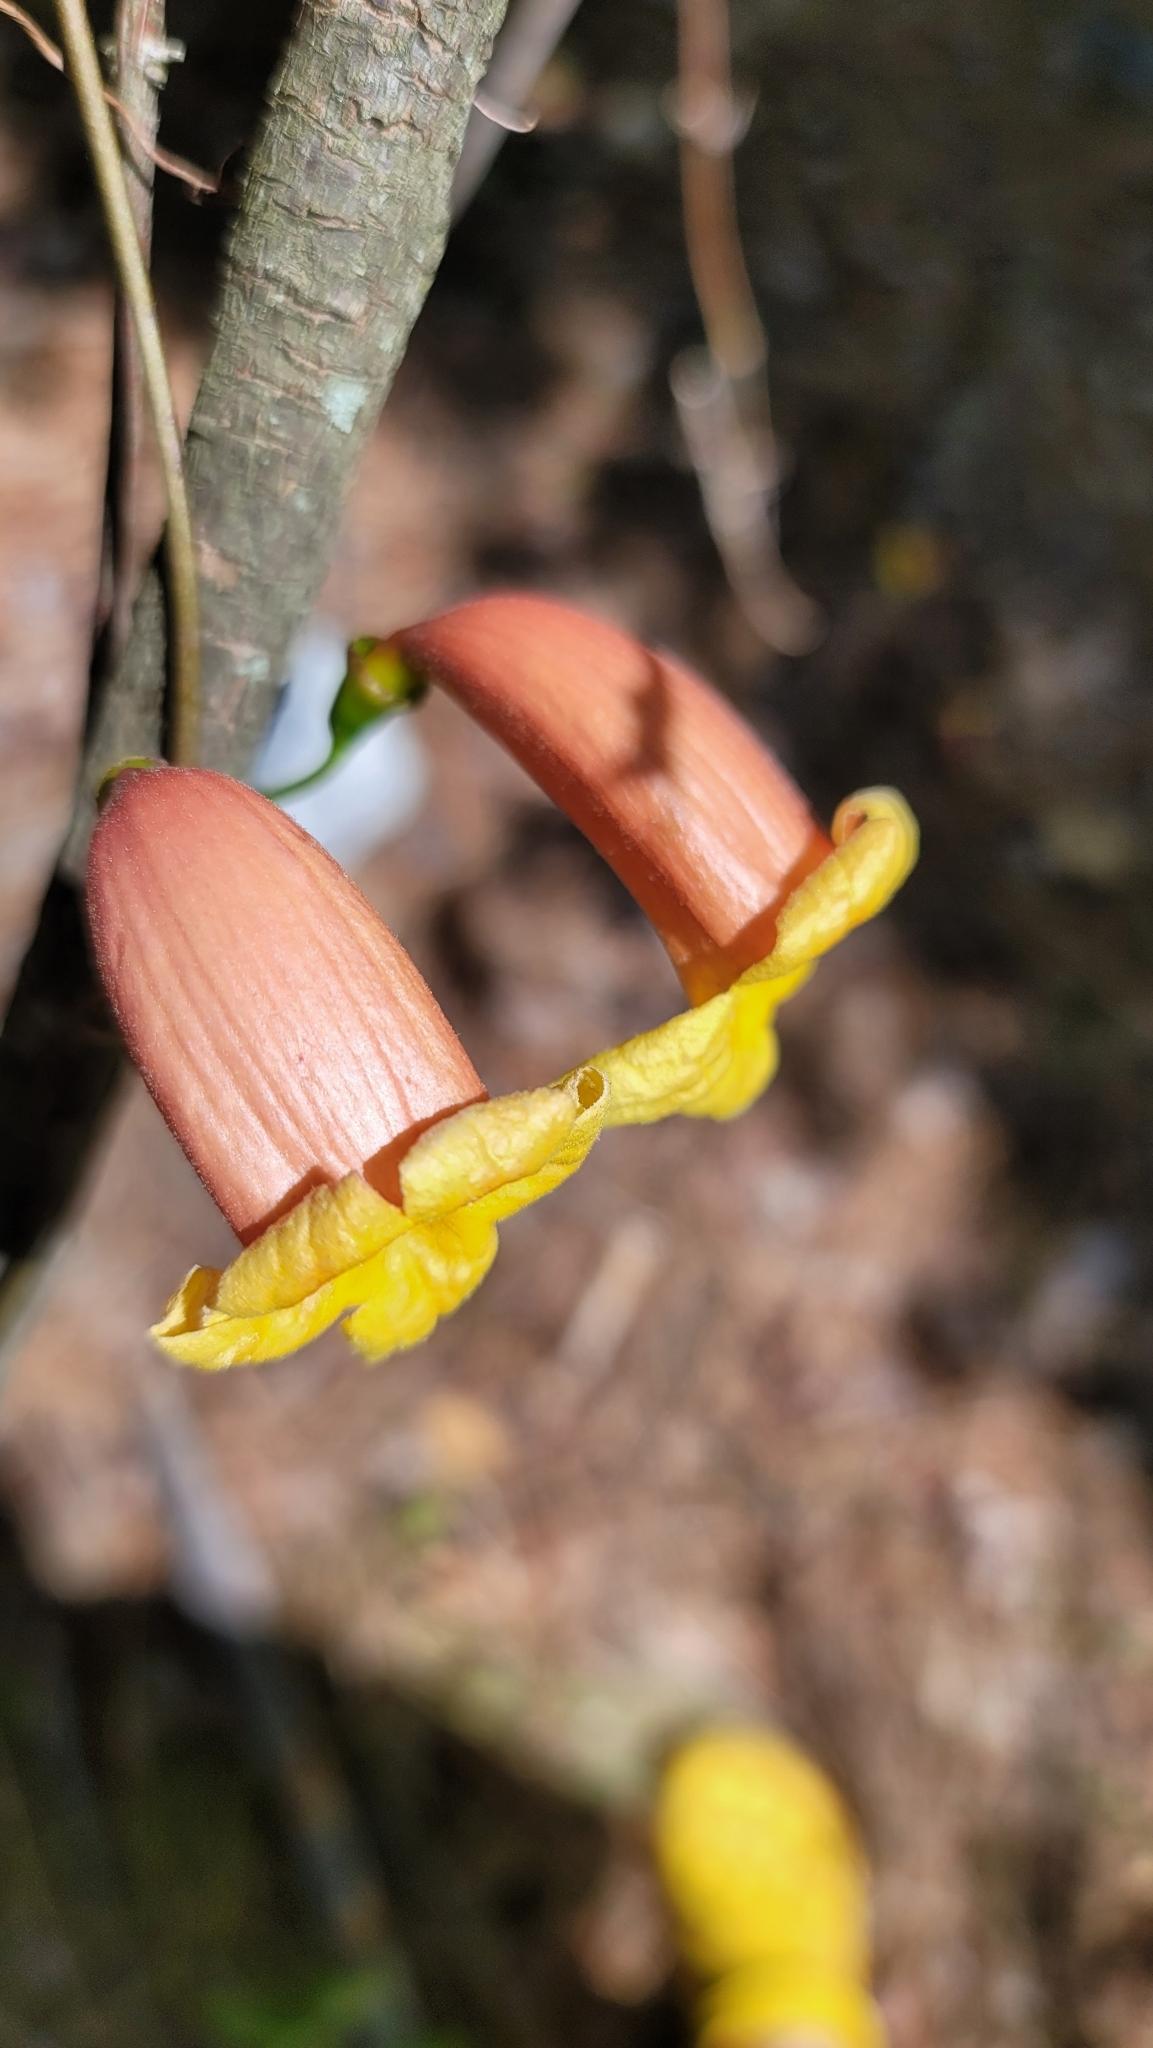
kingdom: Plantae
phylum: Tracheophyta
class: Magnoliopsida
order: Lamiales
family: Bignoniaceae
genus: Bignonia
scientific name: Bignonia capreolata
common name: Crossvine
